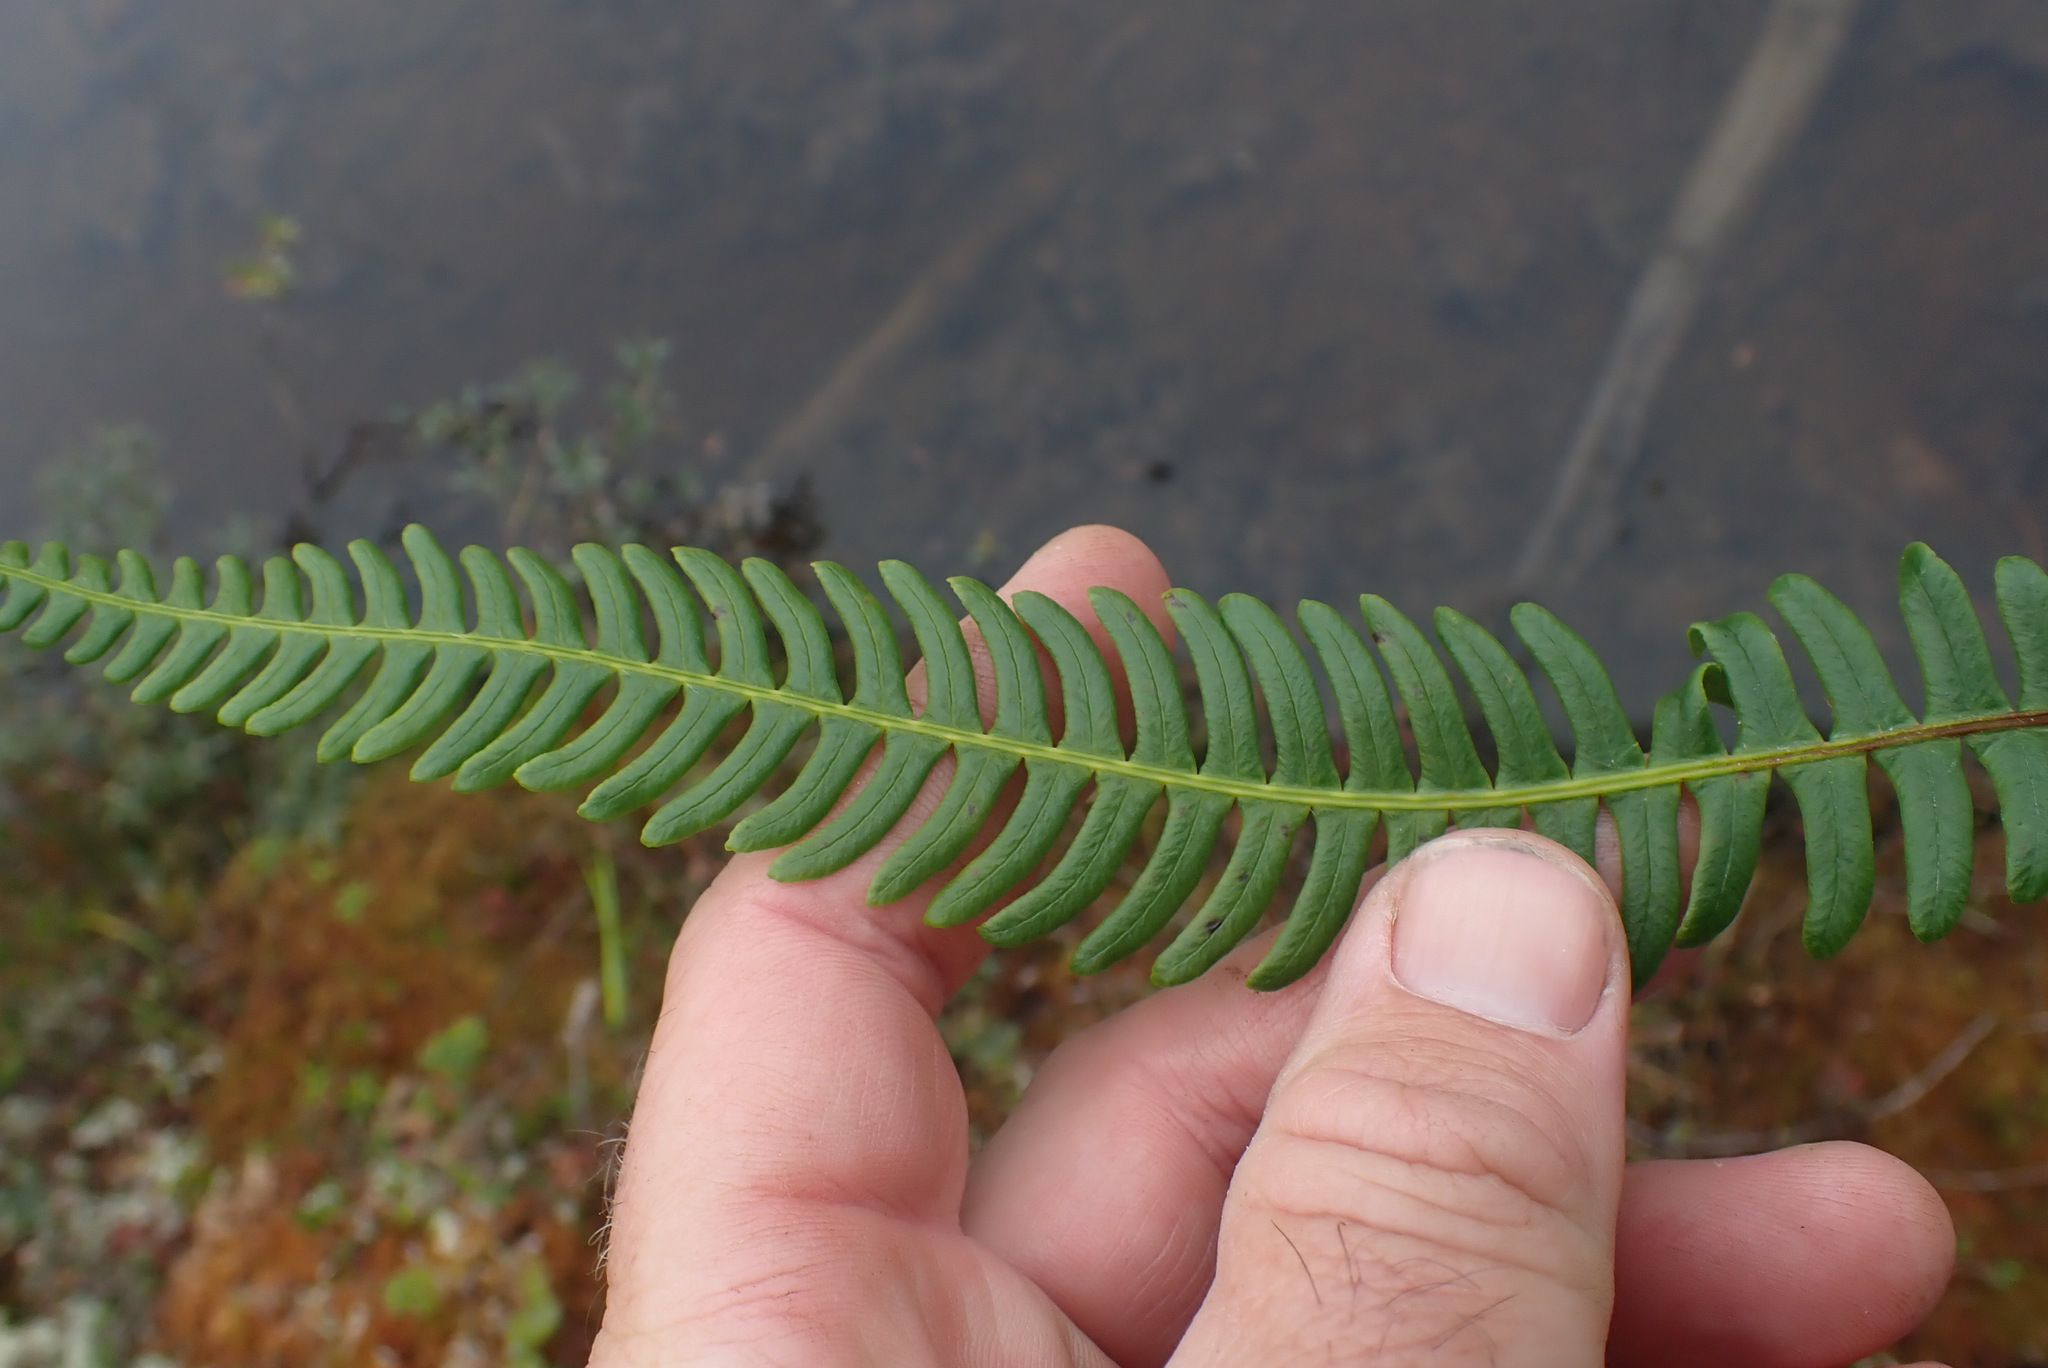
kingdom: Plantae
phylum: Tracheophyta
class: Polypodiopsida
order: Polypodiales
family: Blechnaceae
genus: Struthiopteris
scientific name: Struthiopteris spicant
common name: Deer fern
